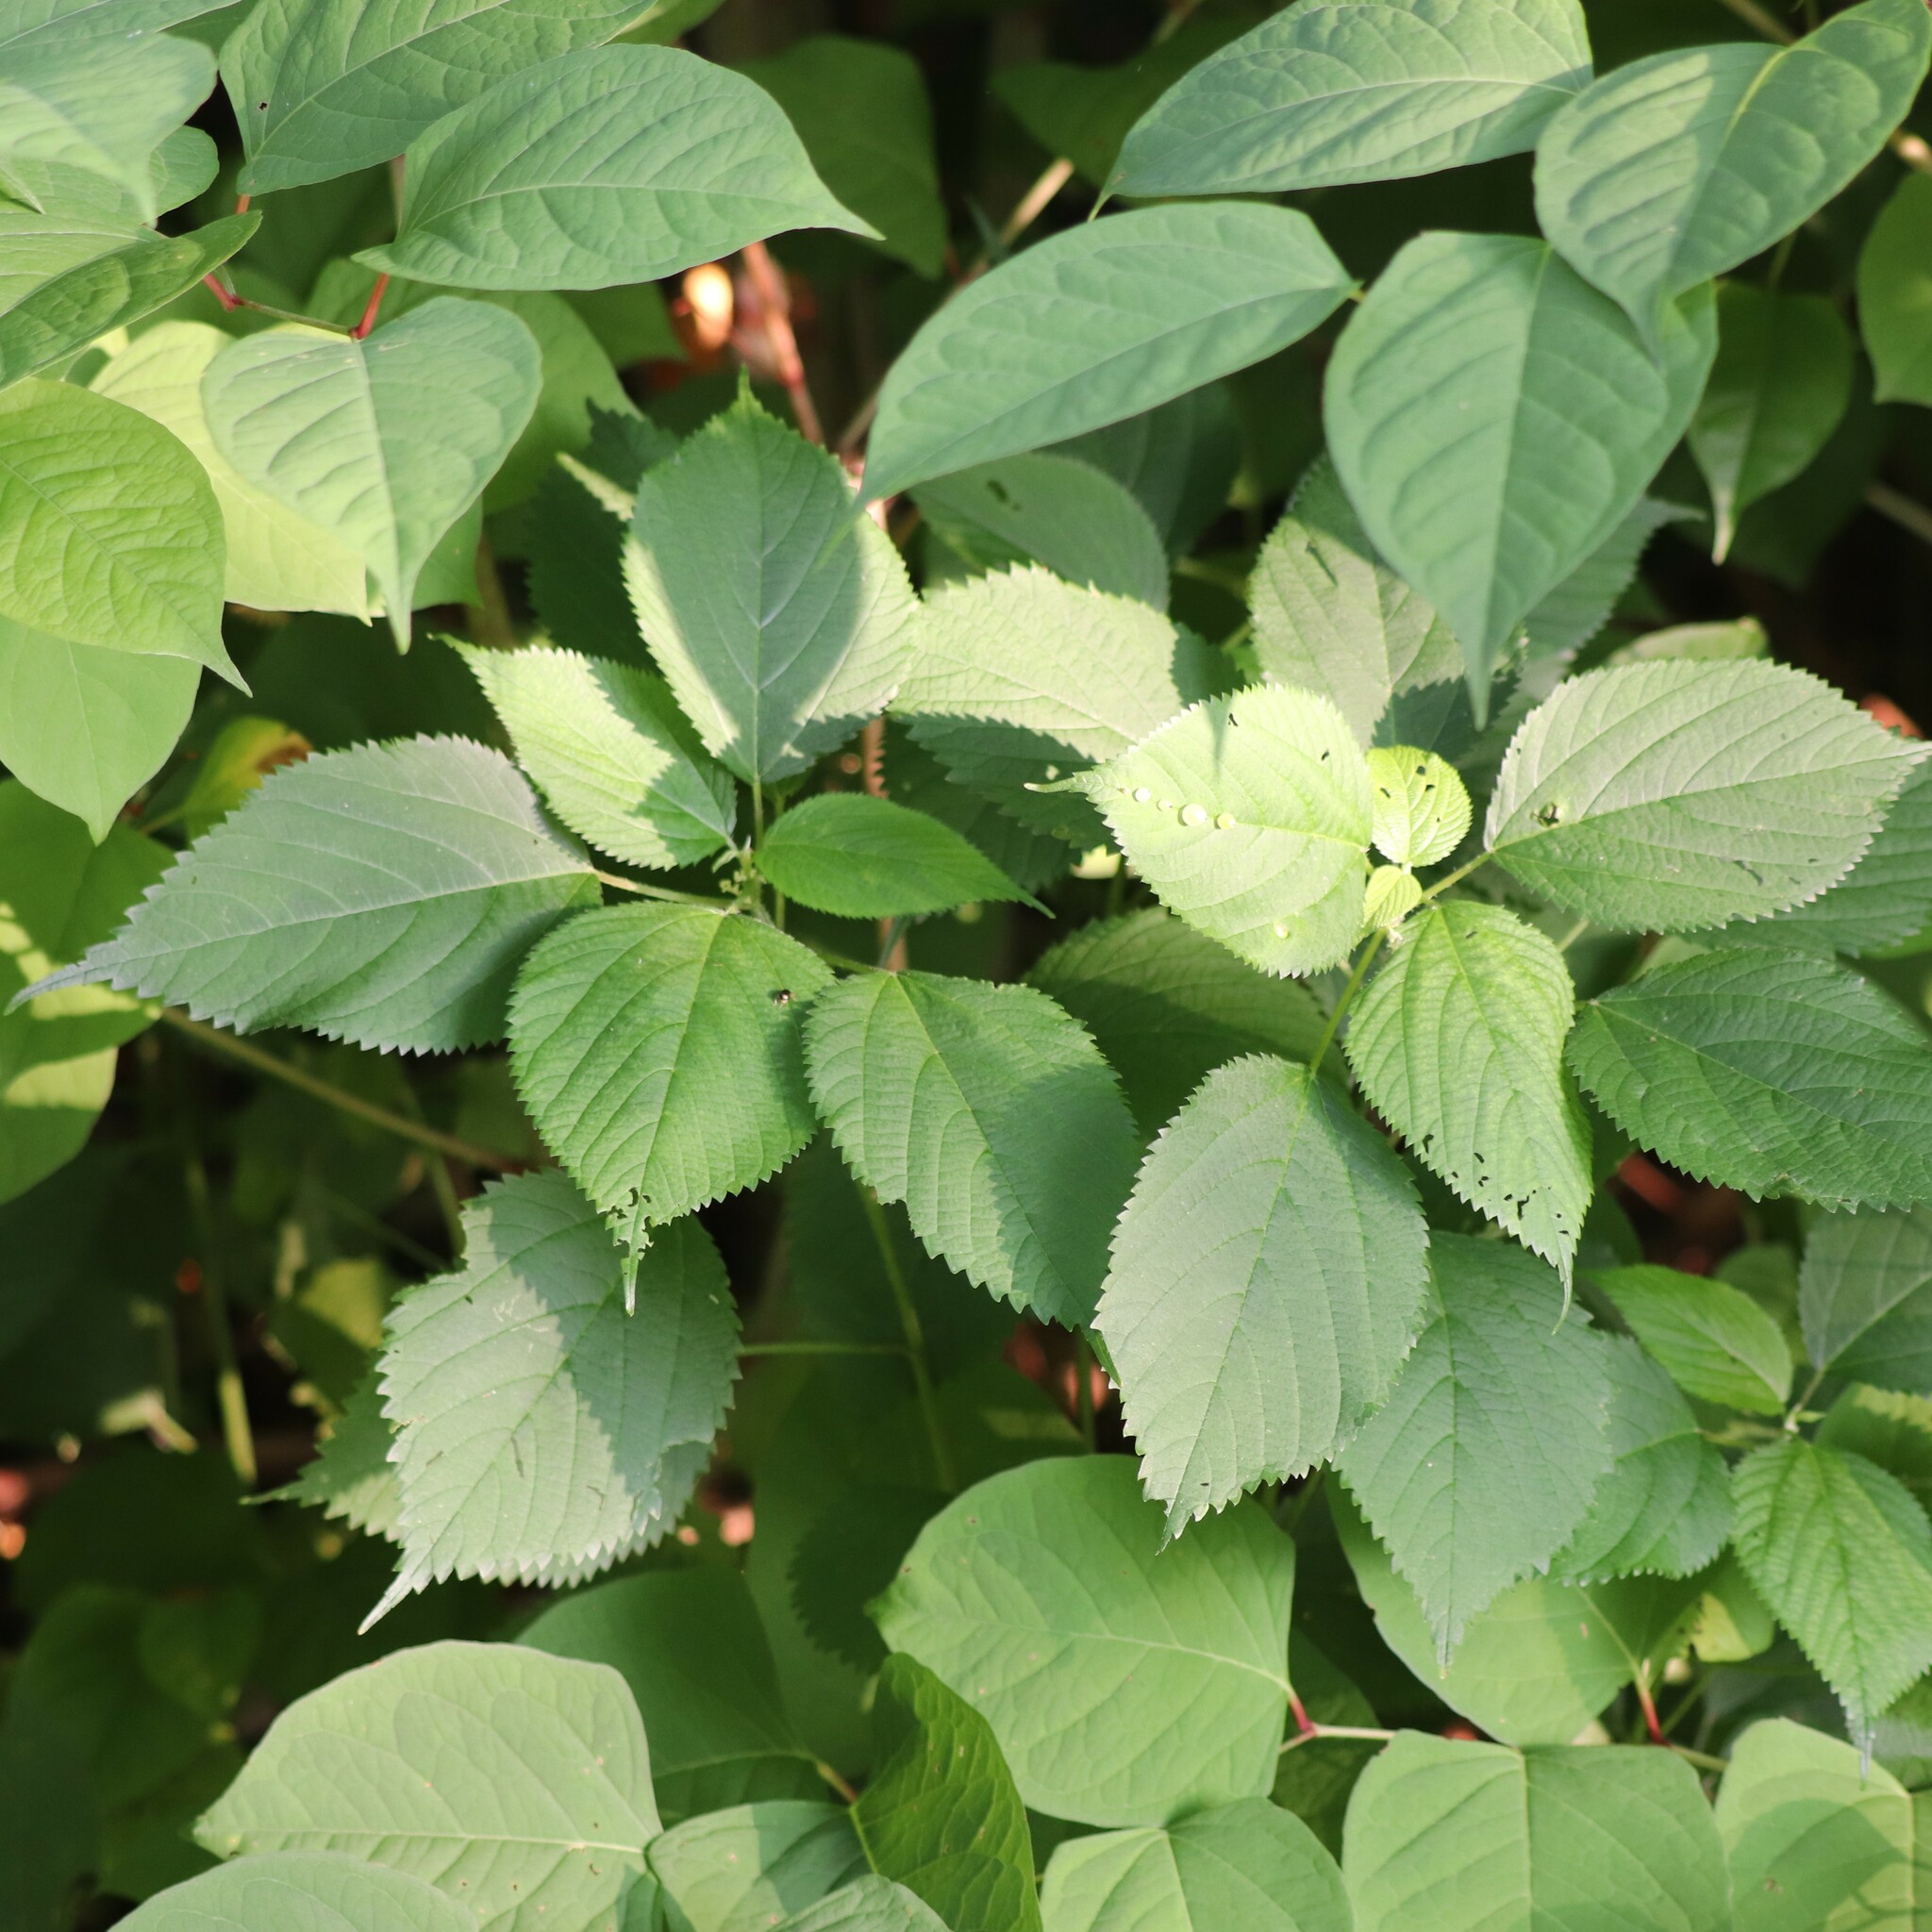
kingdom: Plantae
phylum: Tracheophyta
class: Magnoliopsida
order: Rosales
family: Urticaceae
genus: Laportea
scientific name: Laportea canadensis
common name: Canada nettle
